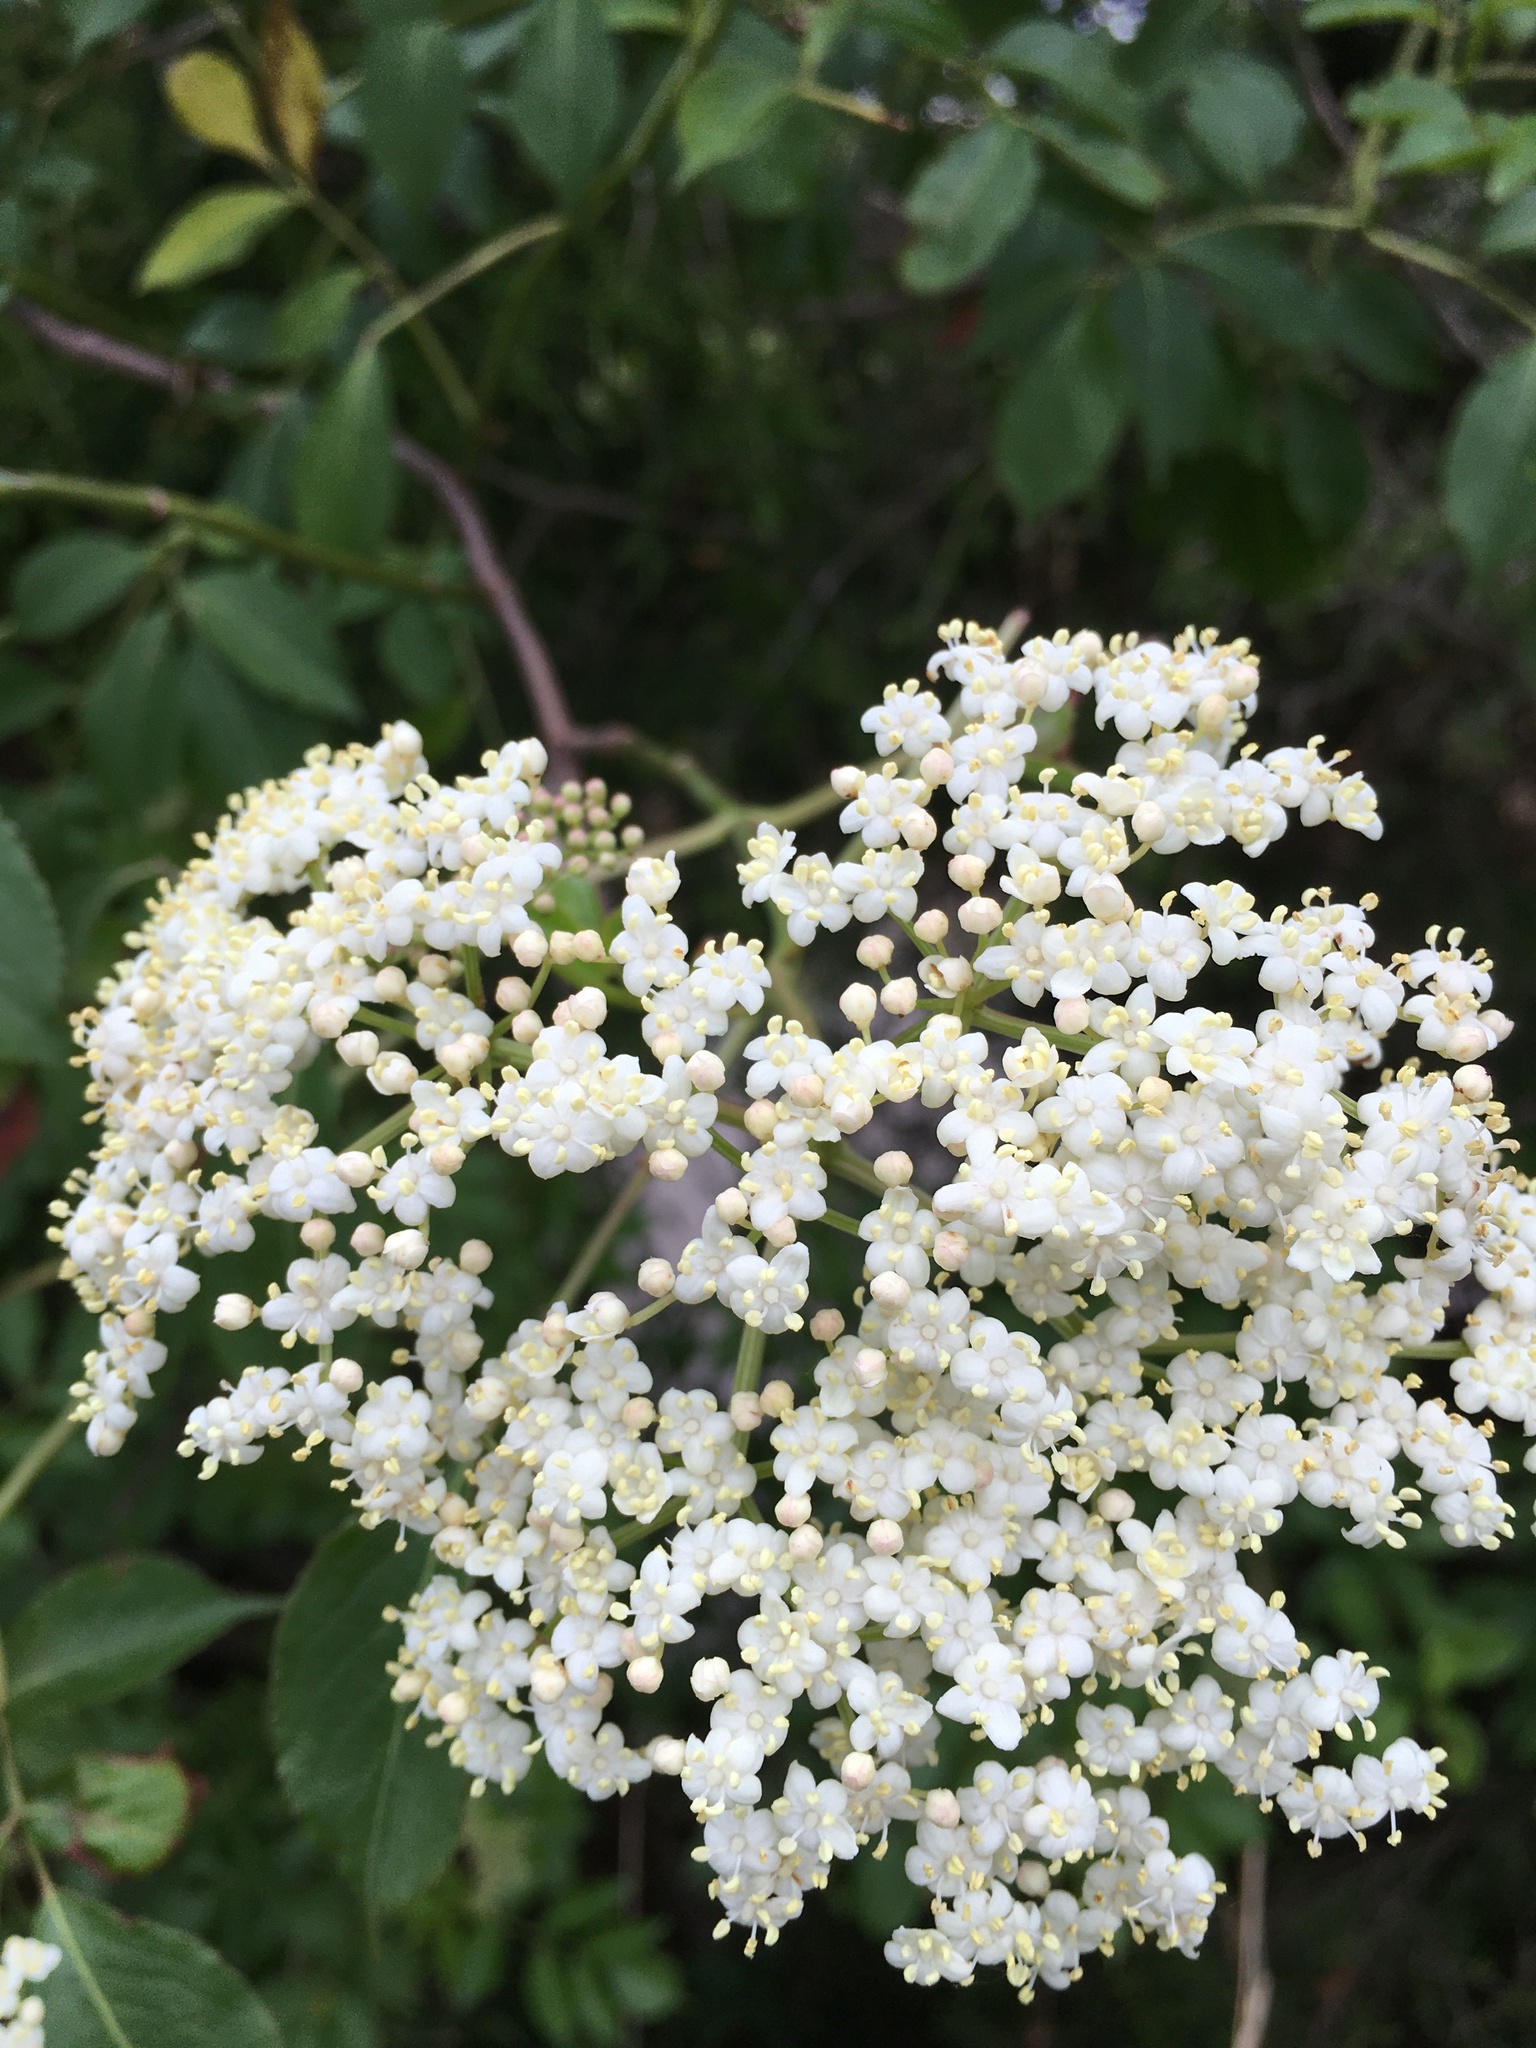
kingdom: Plantae
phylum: Tracheophyta
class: Magnoliopsida
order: Dipsacales
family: Viburnaceae
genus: Sambucus
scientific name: Sambucus canadensis
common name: American elder
